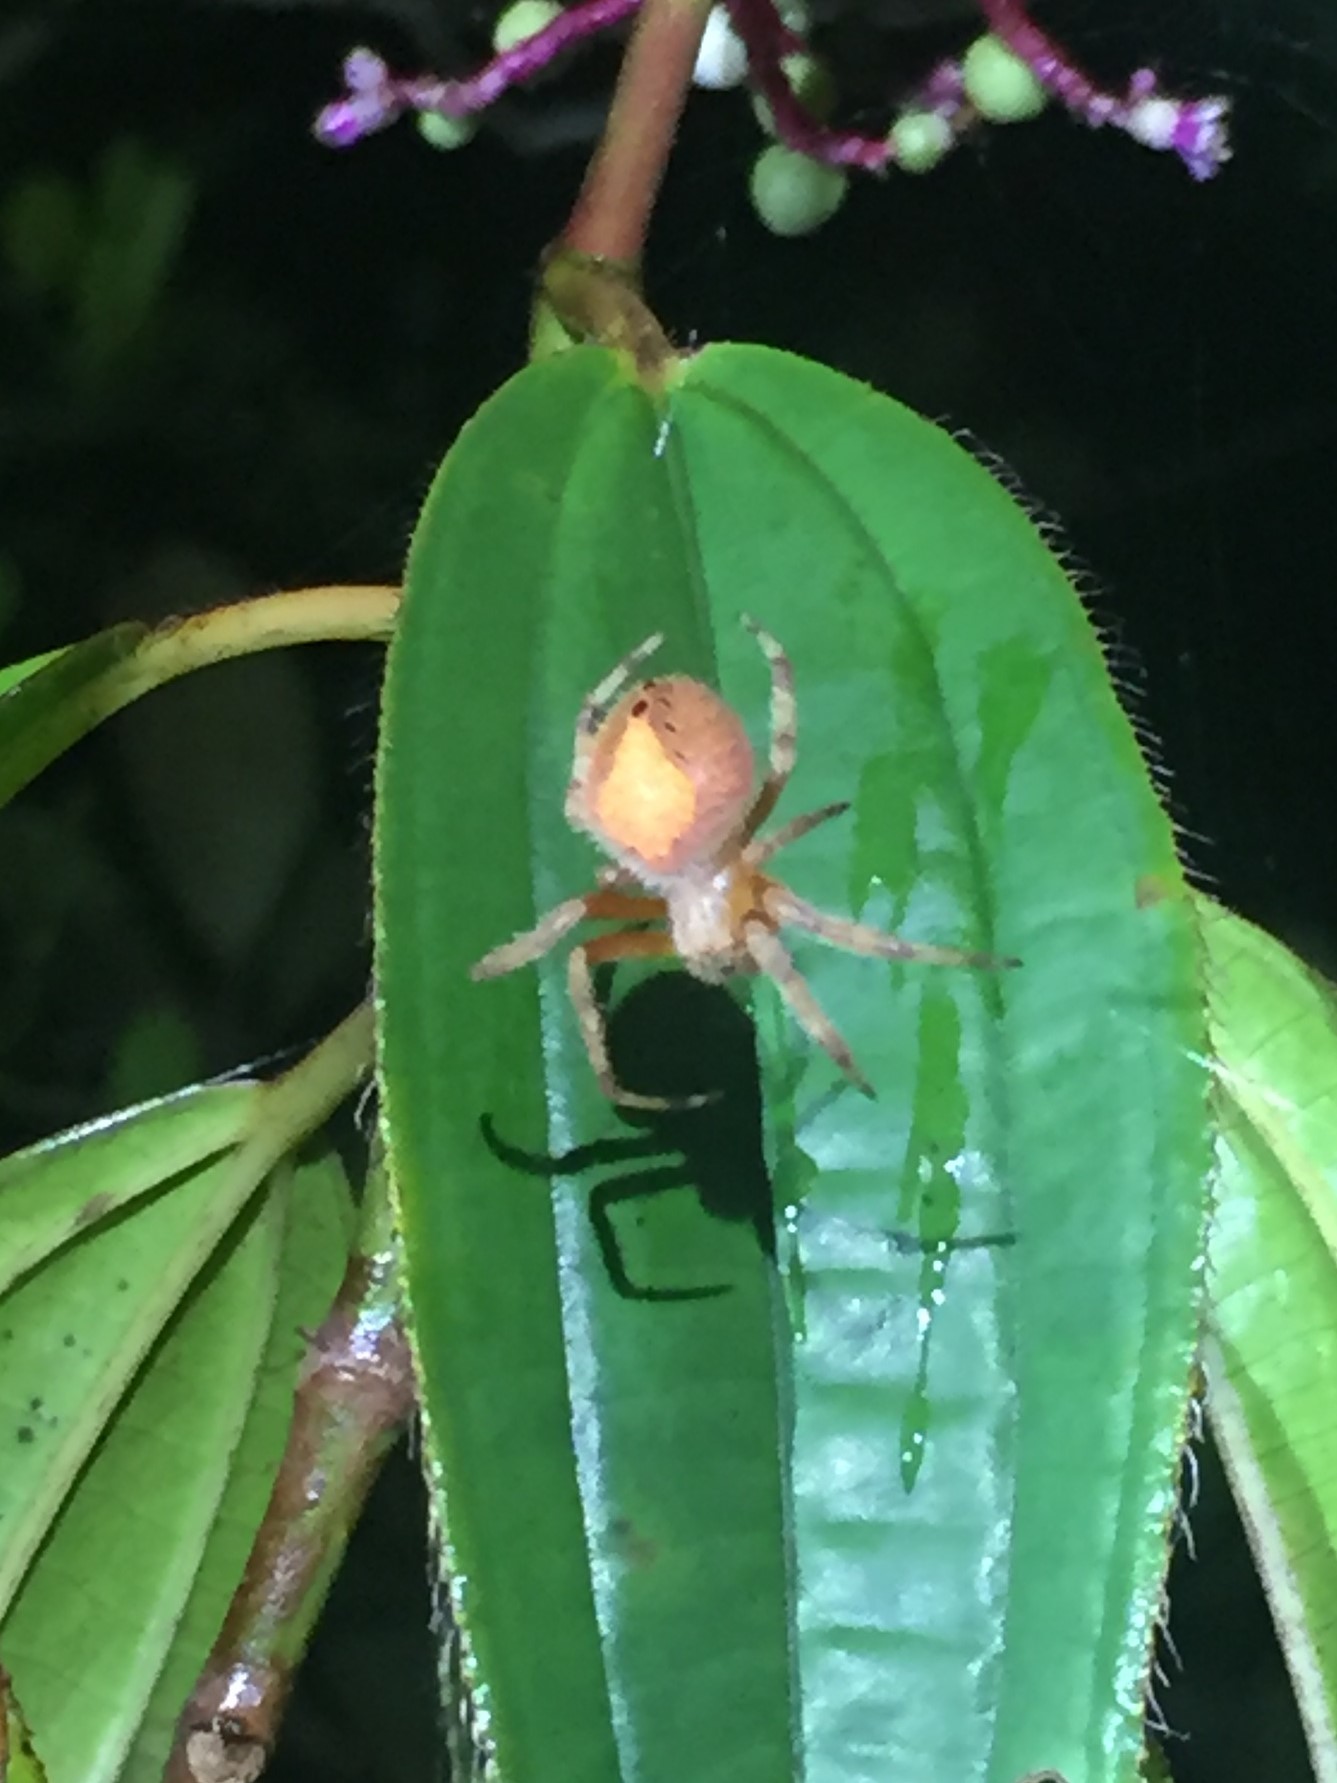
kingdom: Animalia
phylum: Arthropoda
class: Arachnida
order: Araneae
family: Araneidae
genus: Eriophora
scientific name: Eriophora ravilla
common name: Orb weavers
